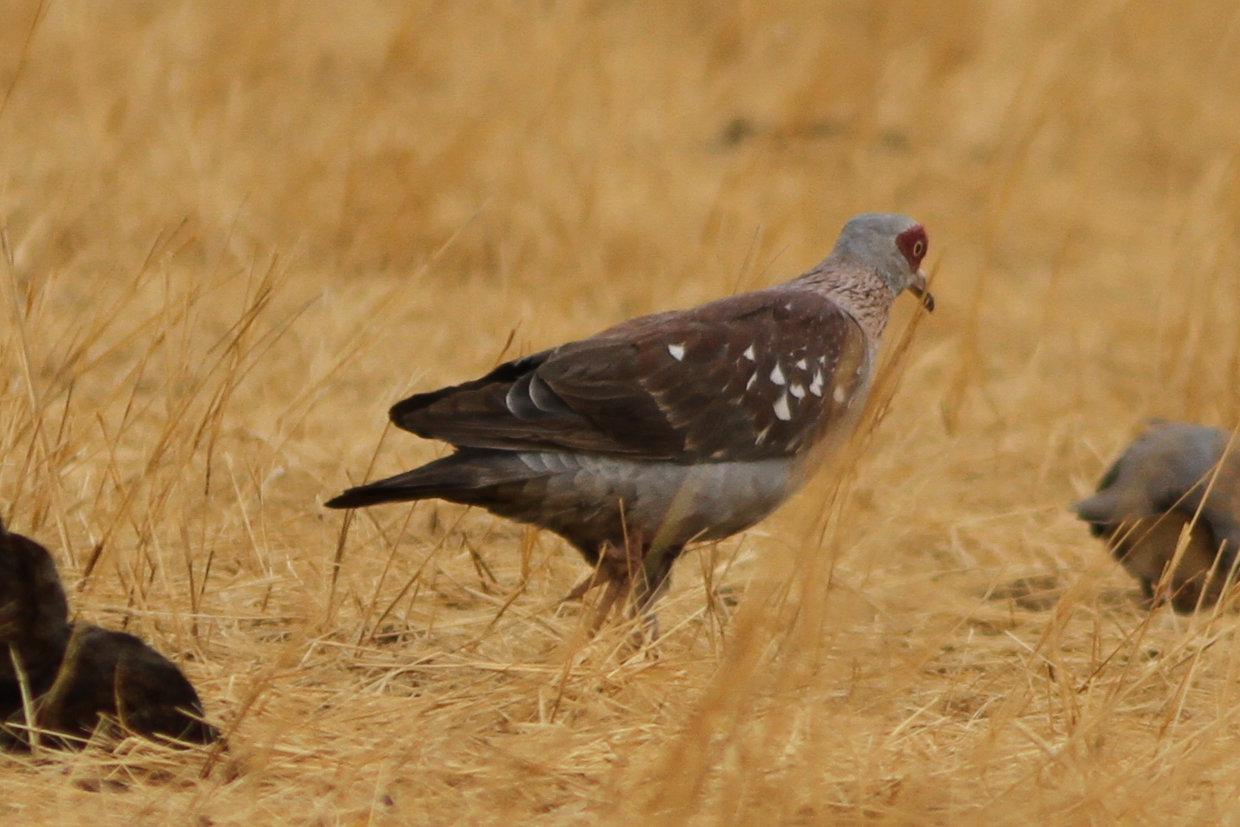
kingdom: Animalia
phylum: Chordata
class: Aves
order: Columbiformes
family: Columbidae
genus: Columba
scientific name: Columba guinea
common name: Speckled pigeon
